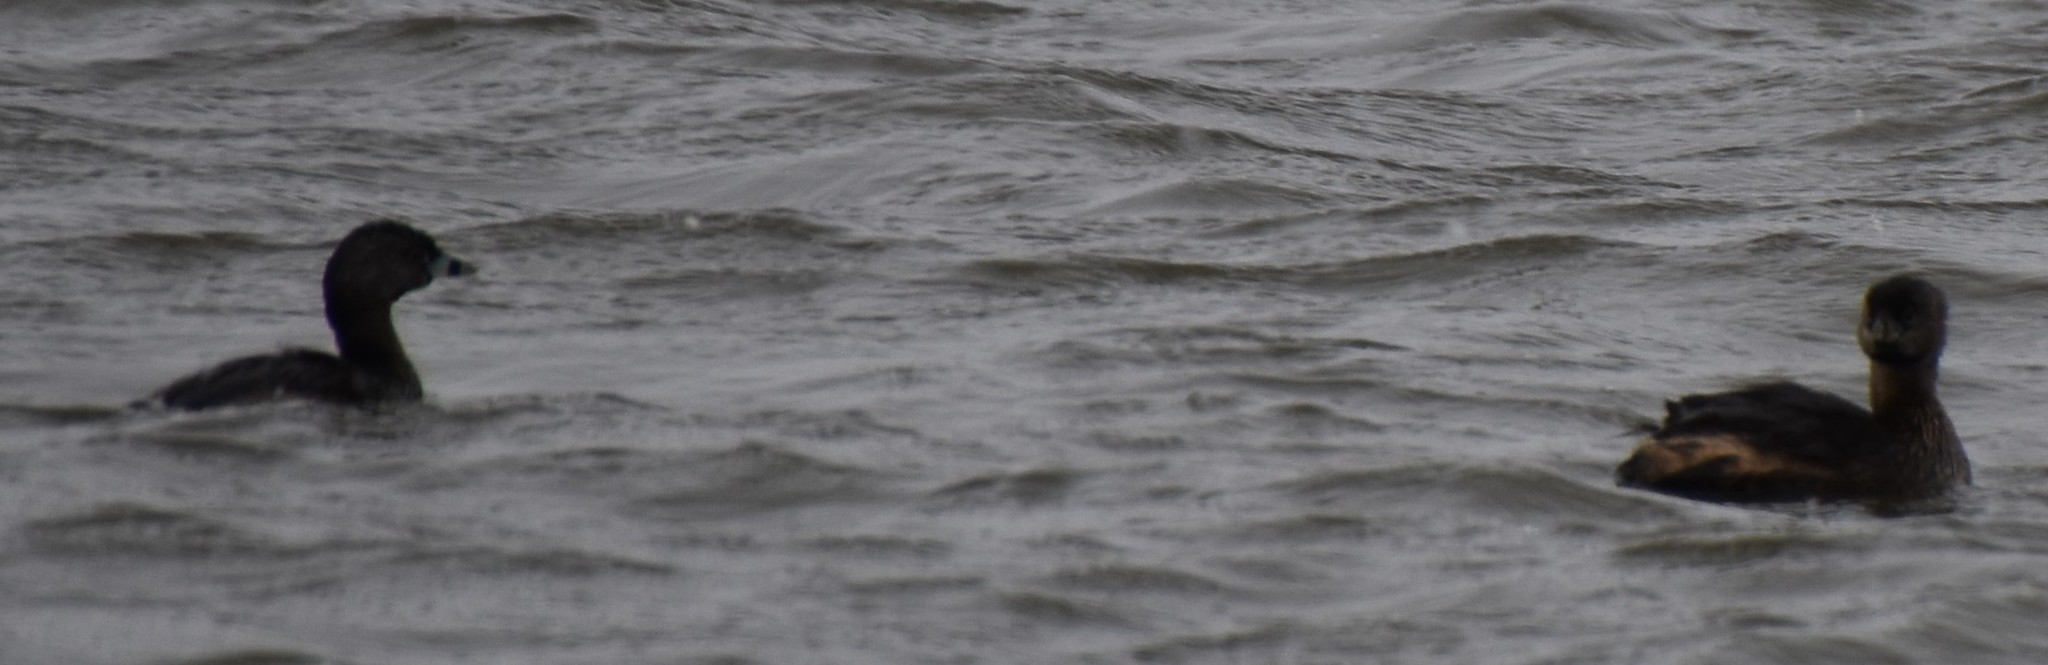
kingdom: Animalia
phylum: Chordata
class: Aves
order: Podicipediformes
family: Podicipedidae
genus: Podilymbus
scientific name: Podilymbus podiceps
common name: Pied-billed grebe
